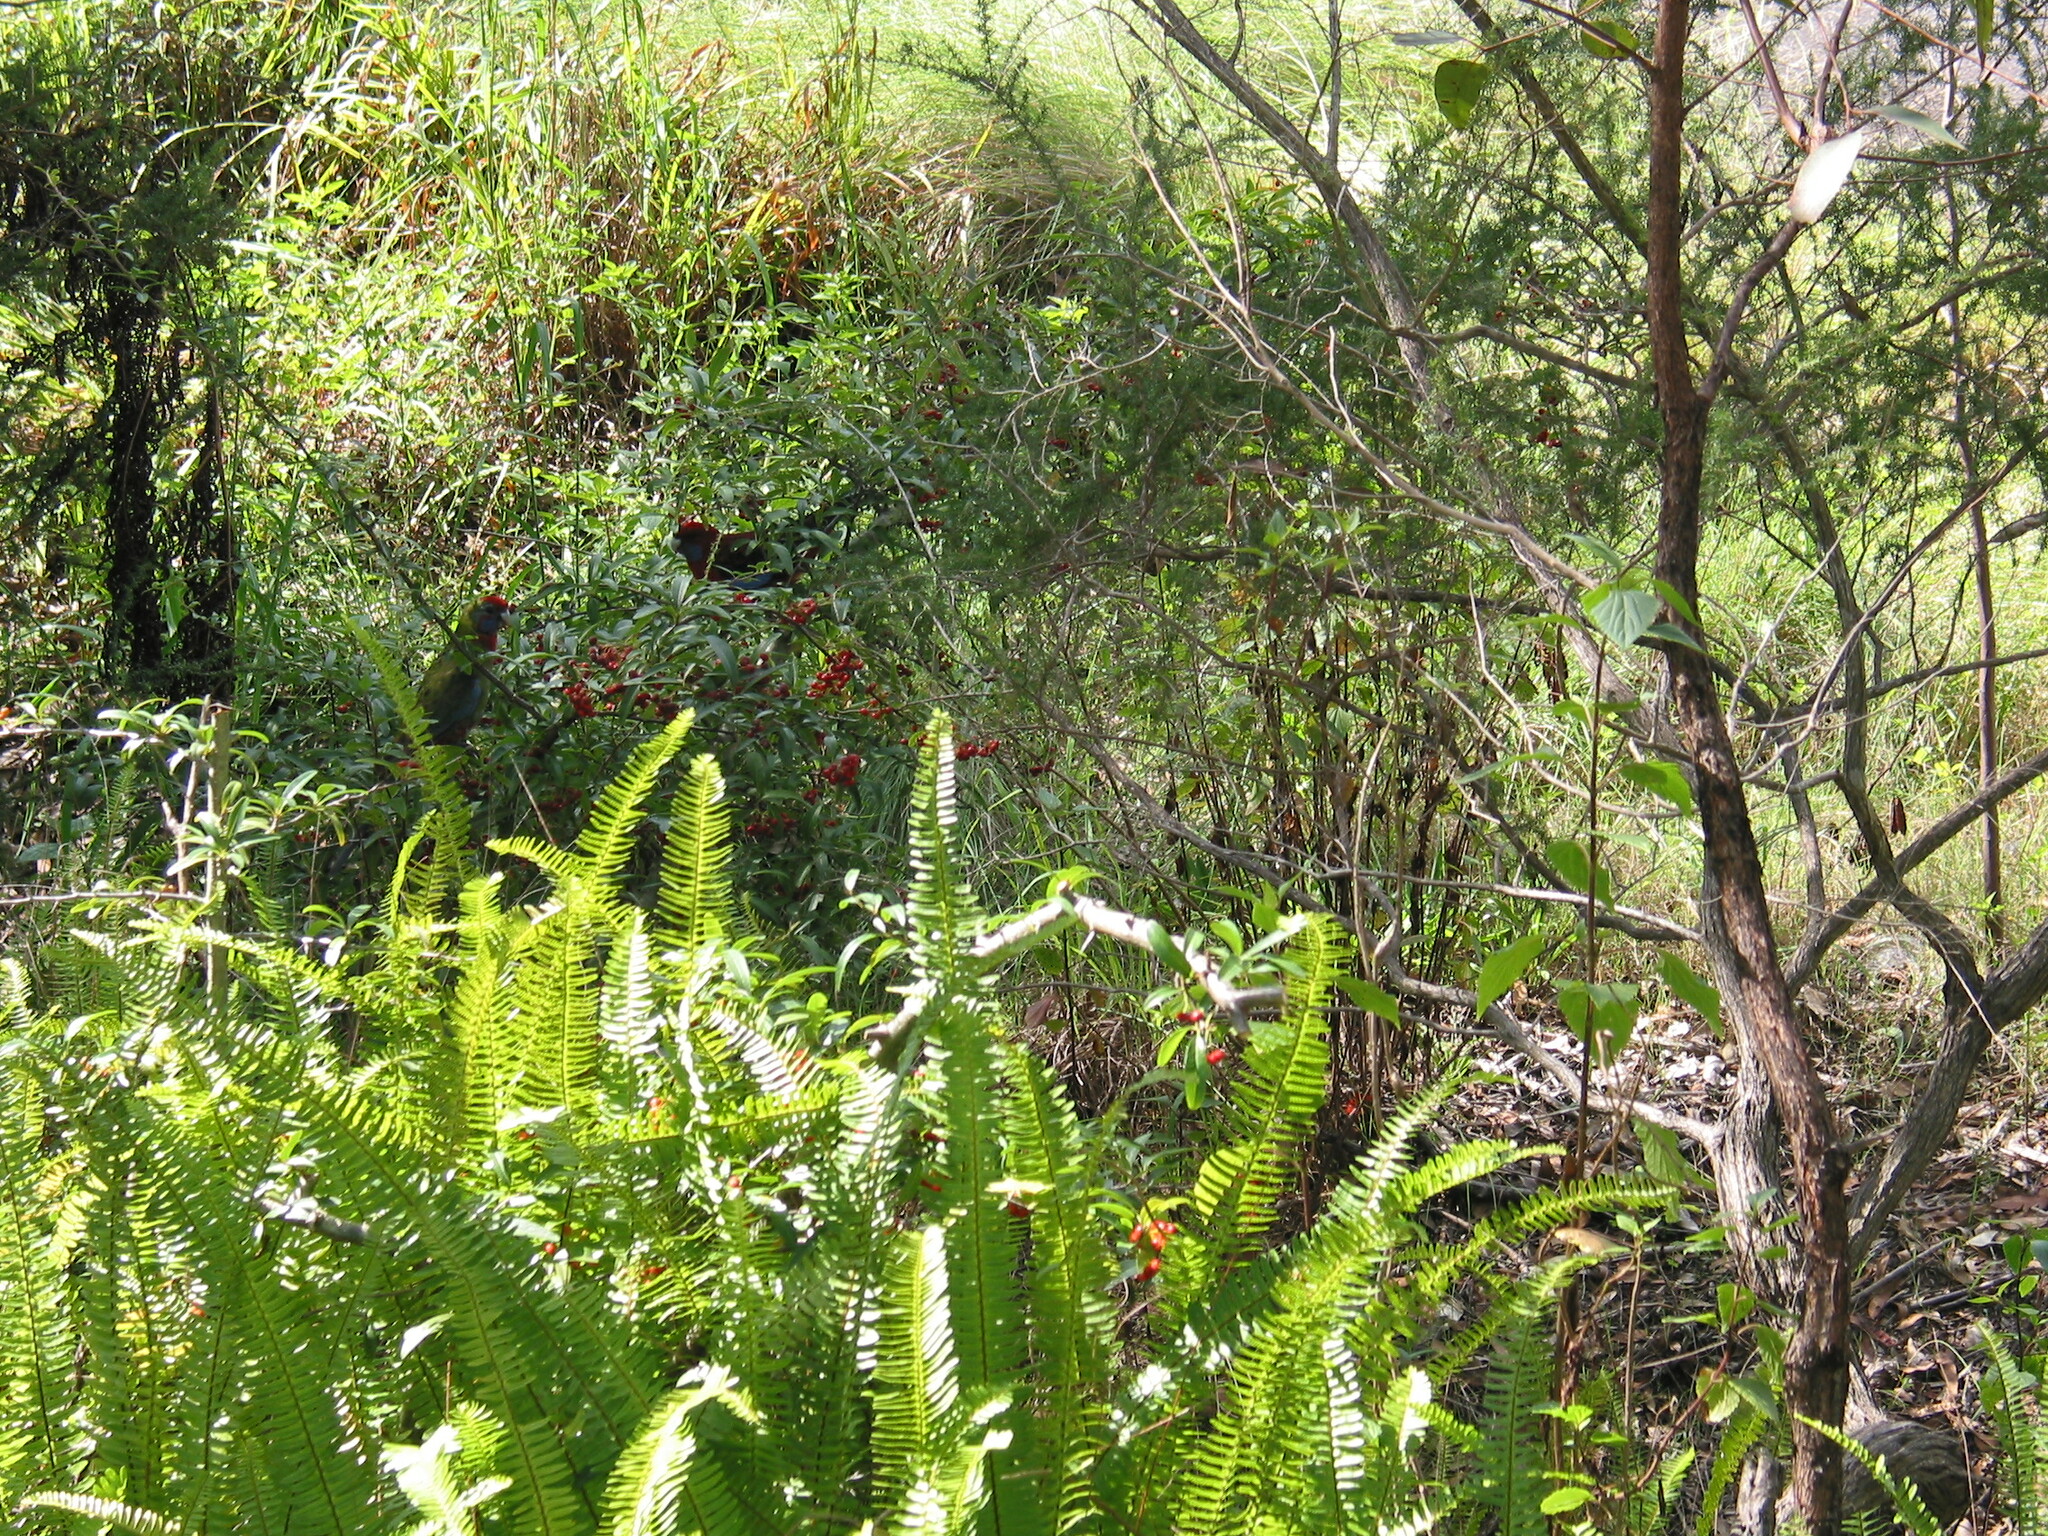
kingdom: Animalia
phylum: Chordata
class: Aves
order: Psittaciformes
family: Psittacidae
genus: Platycercus
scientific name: Platycercus elegans
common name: Crimson rosella
